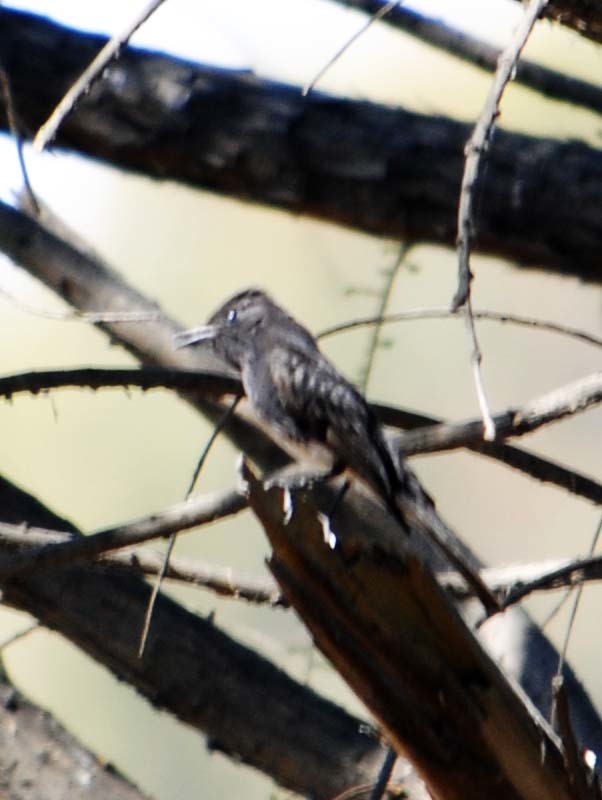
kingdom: Animalia
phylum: Chordata
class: Aves
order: Passeriformes
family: Tyrannidae
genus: Sayornis
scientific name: Sayornis nigricans
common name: Black phoebe
